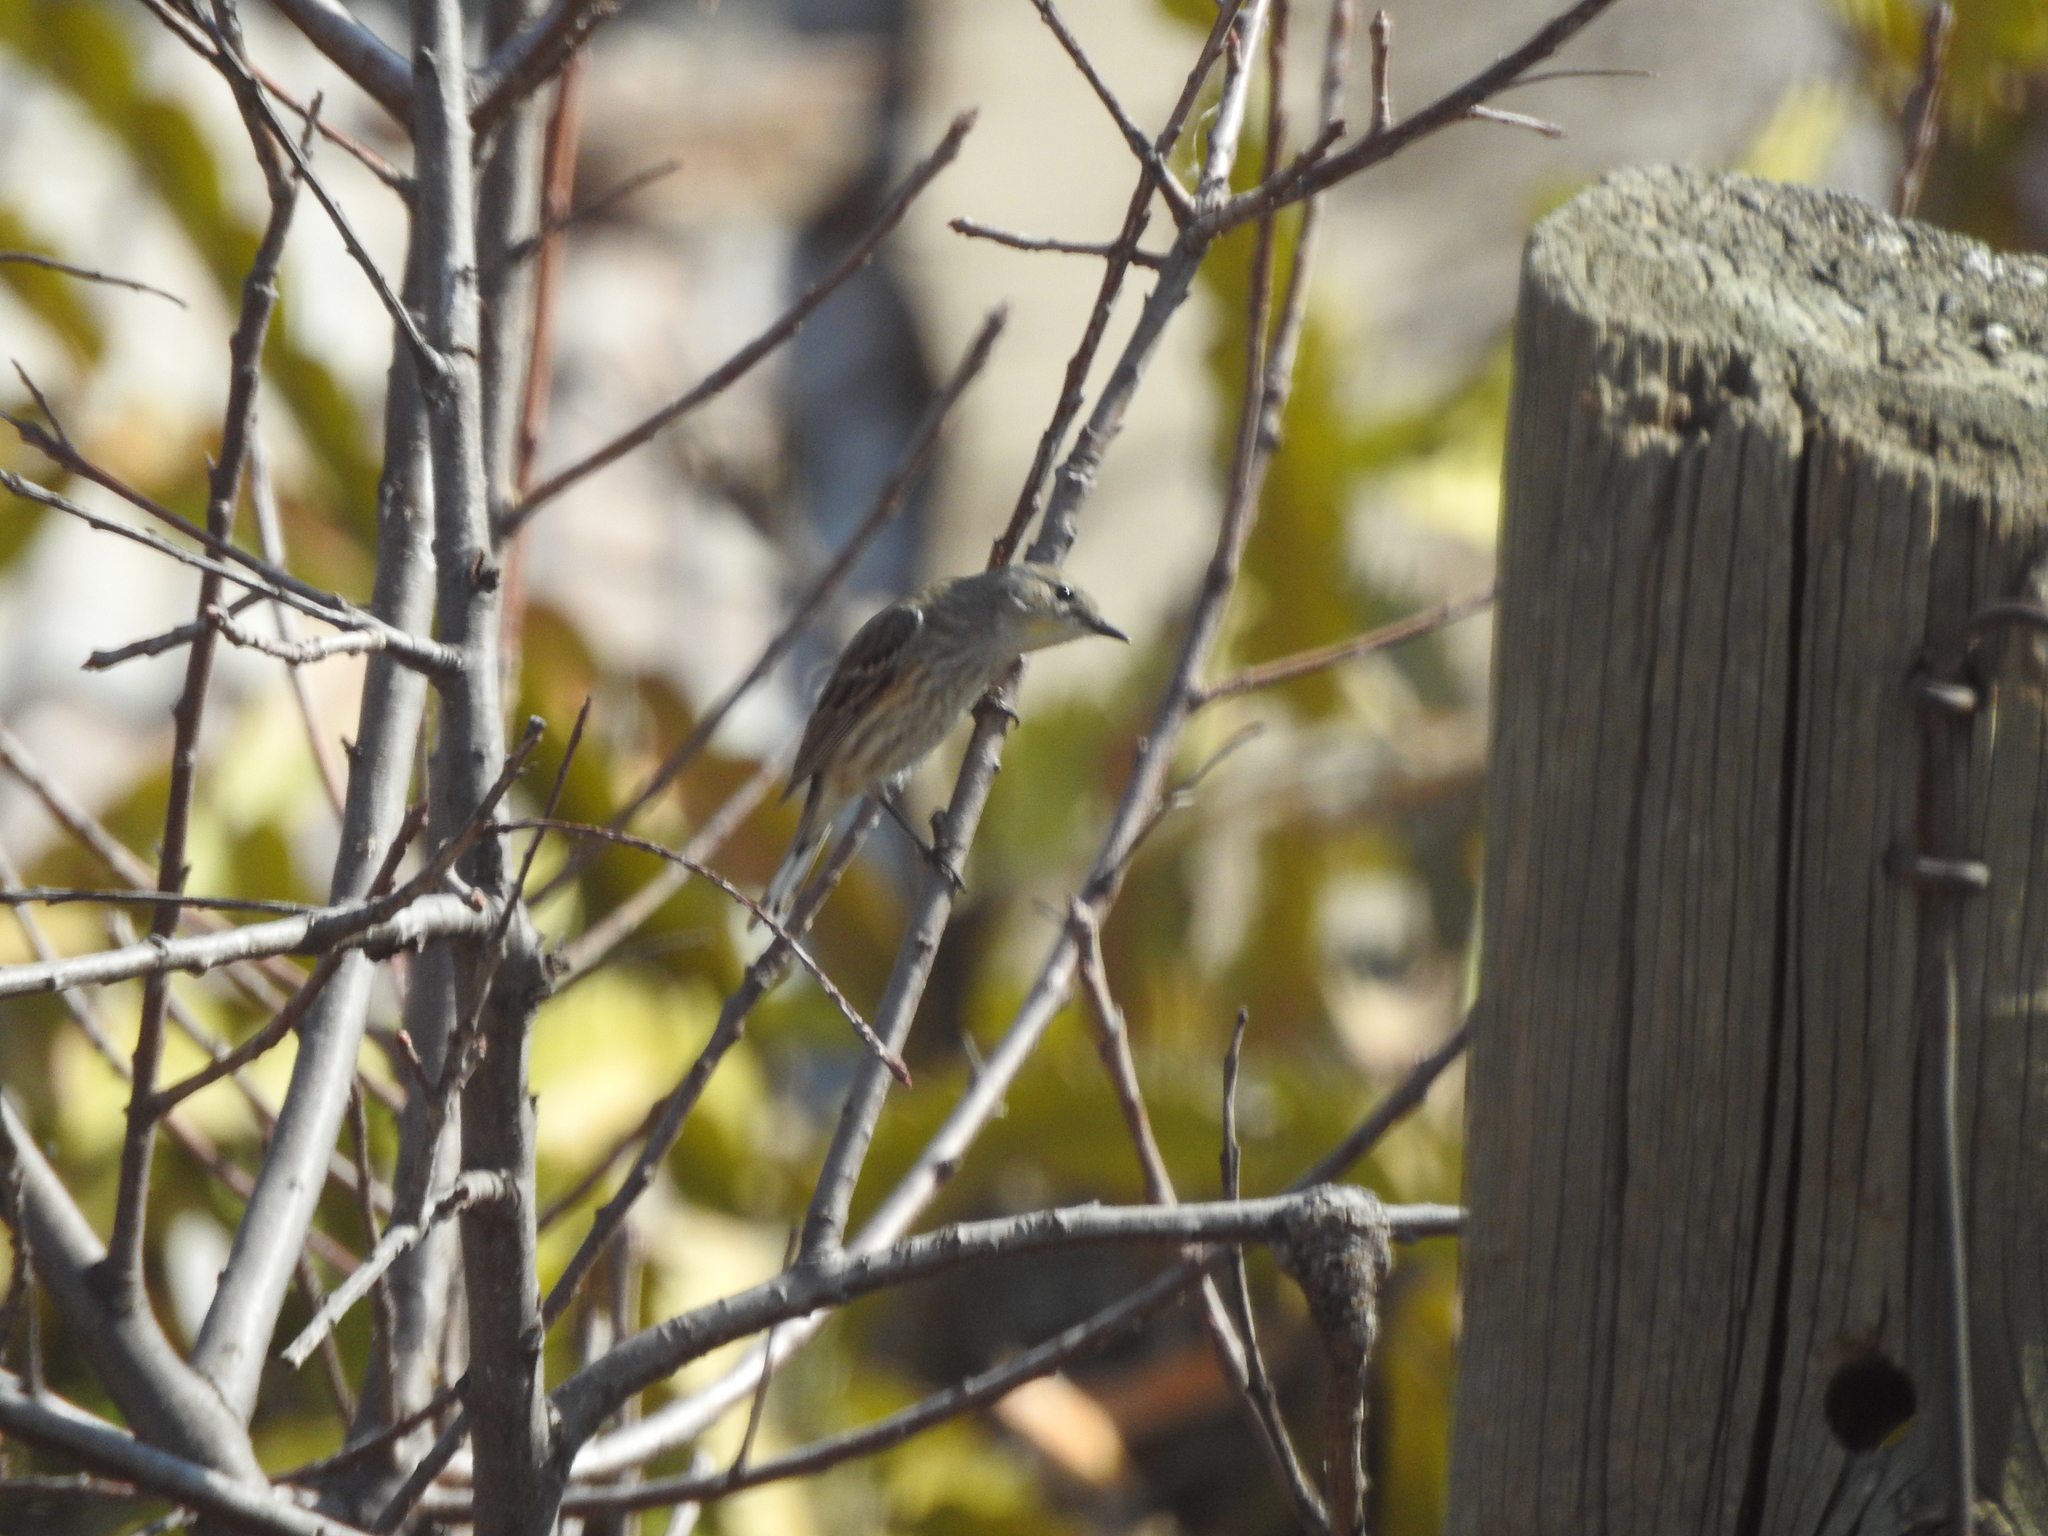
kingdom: Animalia
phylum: Chordata
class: Aves
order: Passeriformes
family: Parulidae
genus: Setophaga
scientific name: Setophaga coronata
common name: Myrtle warbler
